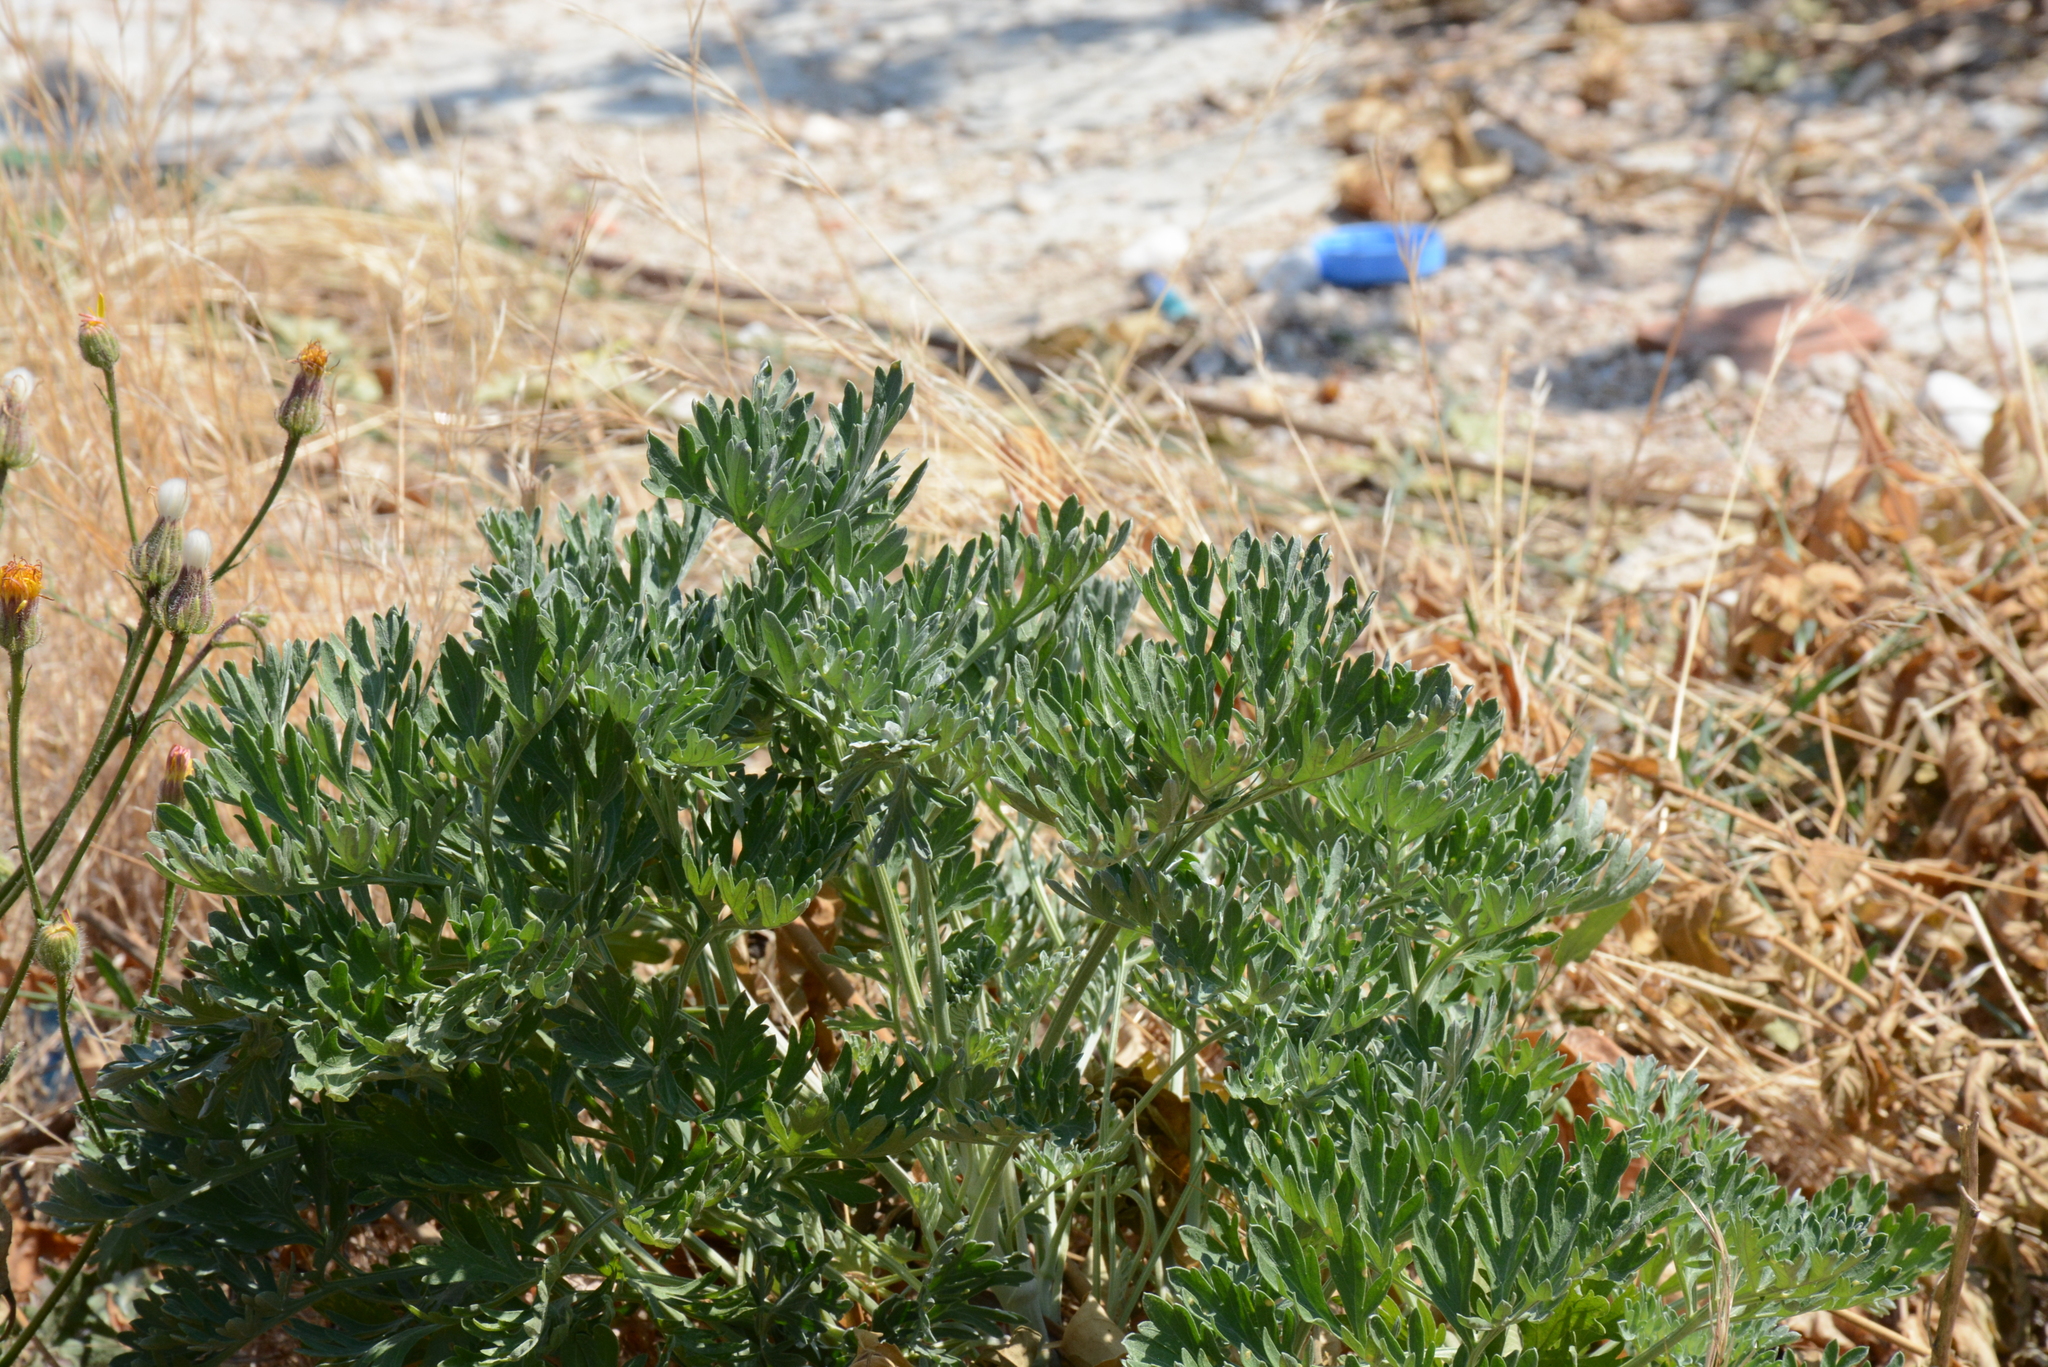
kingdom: Plantae
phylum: Tracheophyta
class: Magnoliopsida
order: Asterales
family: Asteraceae
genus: Artemisia
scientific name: Artemisia absinthium
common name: Wormwood
